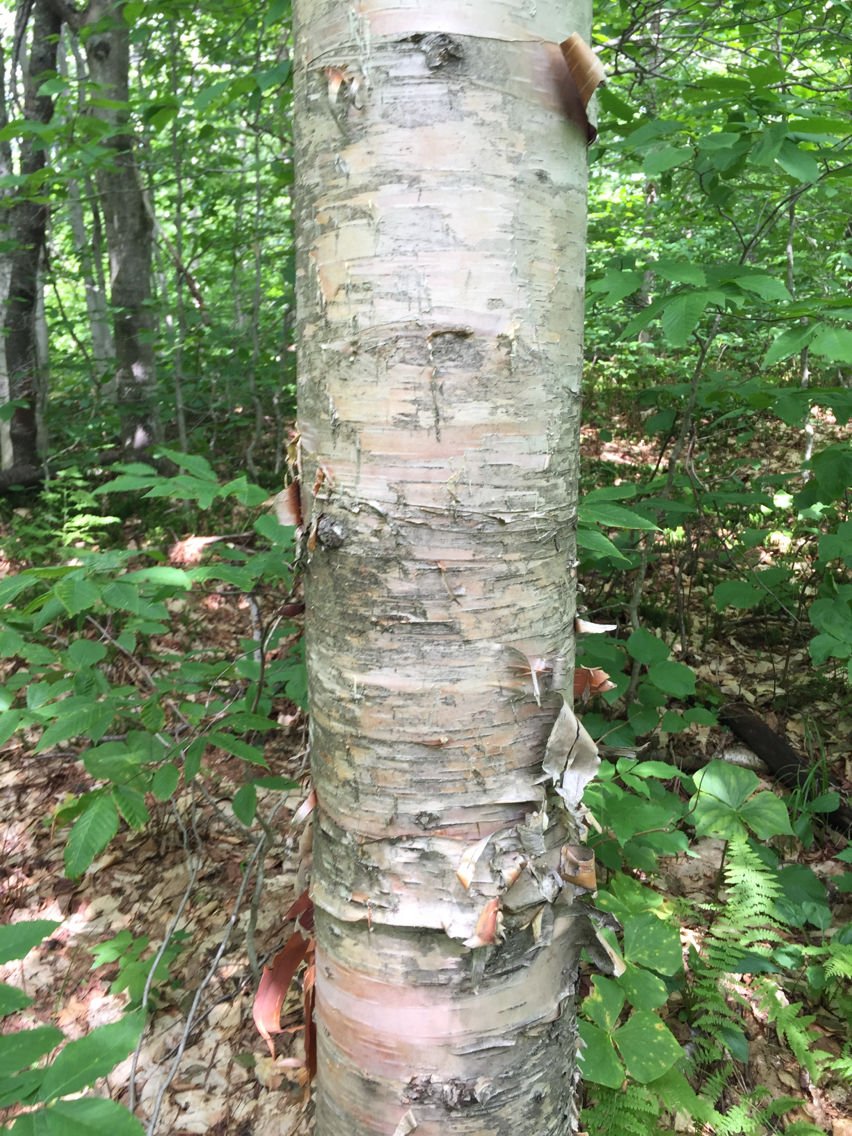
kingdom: Plantae
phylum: Tracheophyta
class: Magnoliopsida
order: Fagales
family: Betulaceae
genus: Betula
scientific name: Betula cordifolia
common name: Mountain white birch
